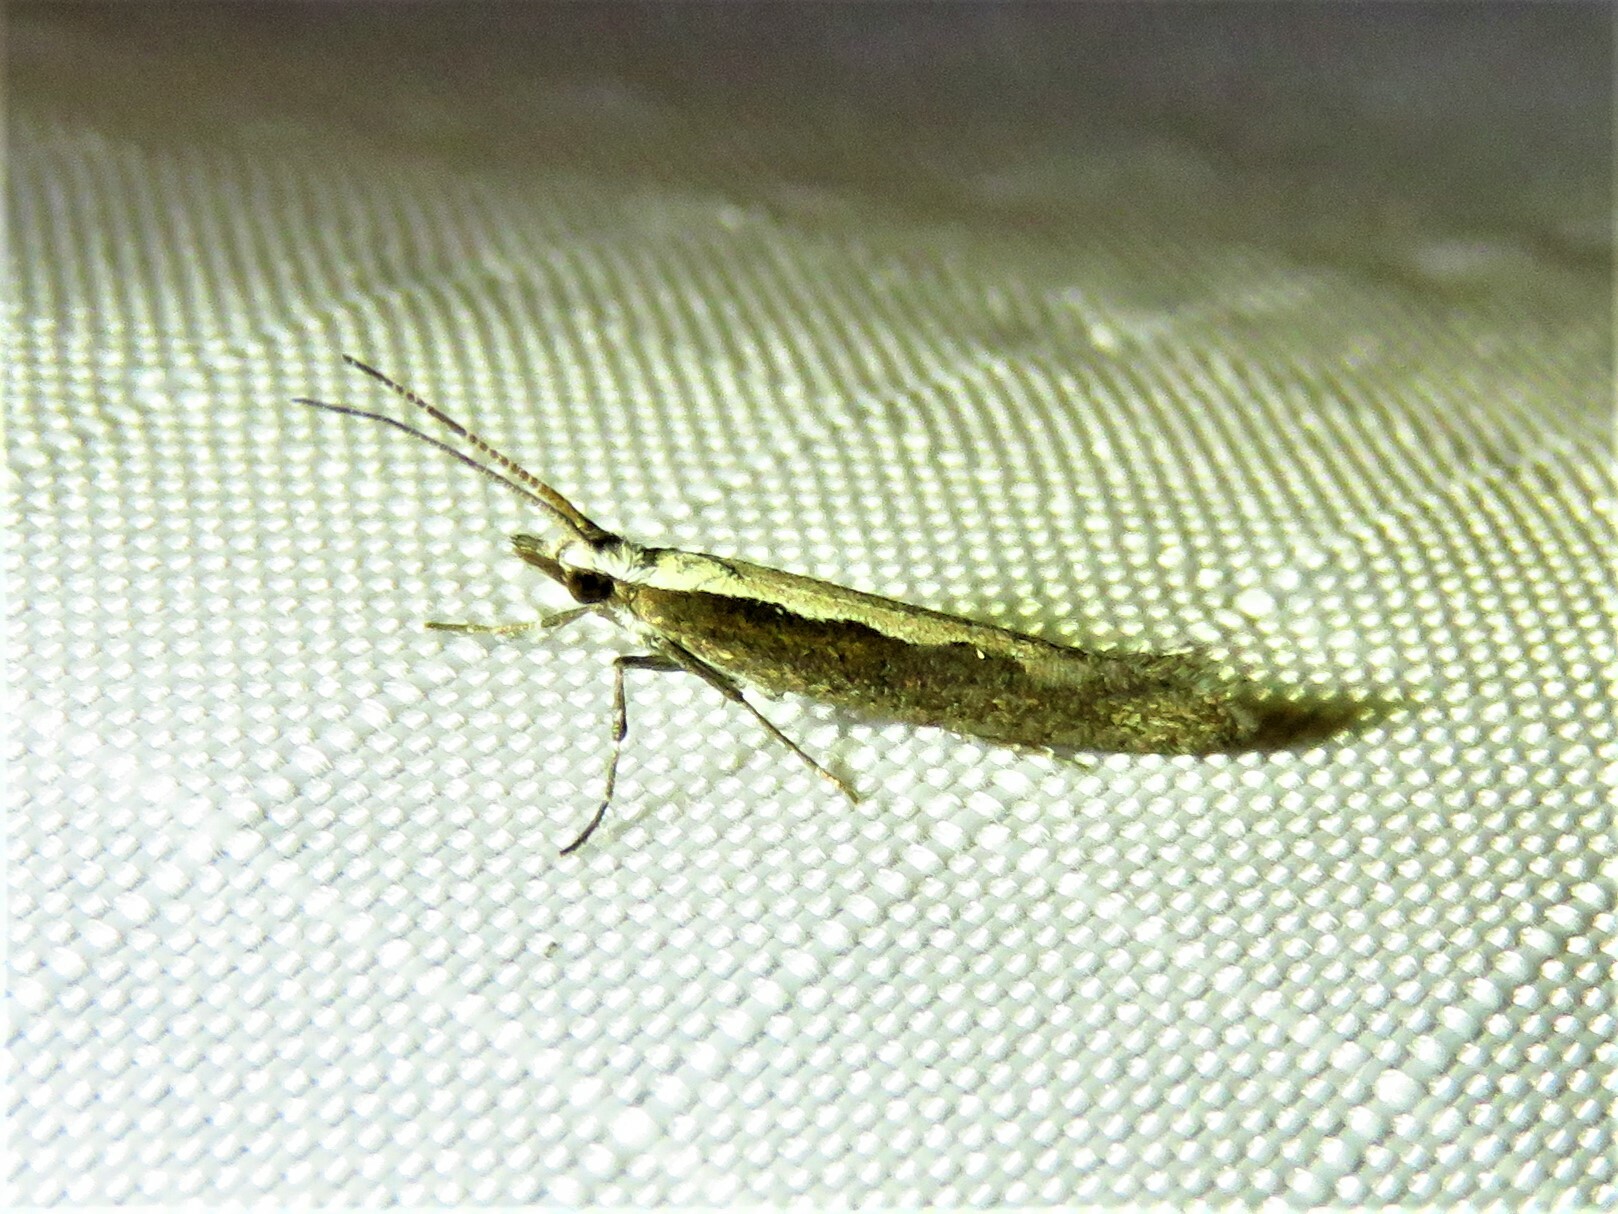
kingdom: Animalia
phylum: Arthropoda
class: Insecta
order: Lepidoptera
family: Plutellidae
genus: Plutella
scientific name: Plutella xylostella
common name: Diamond-back moth
